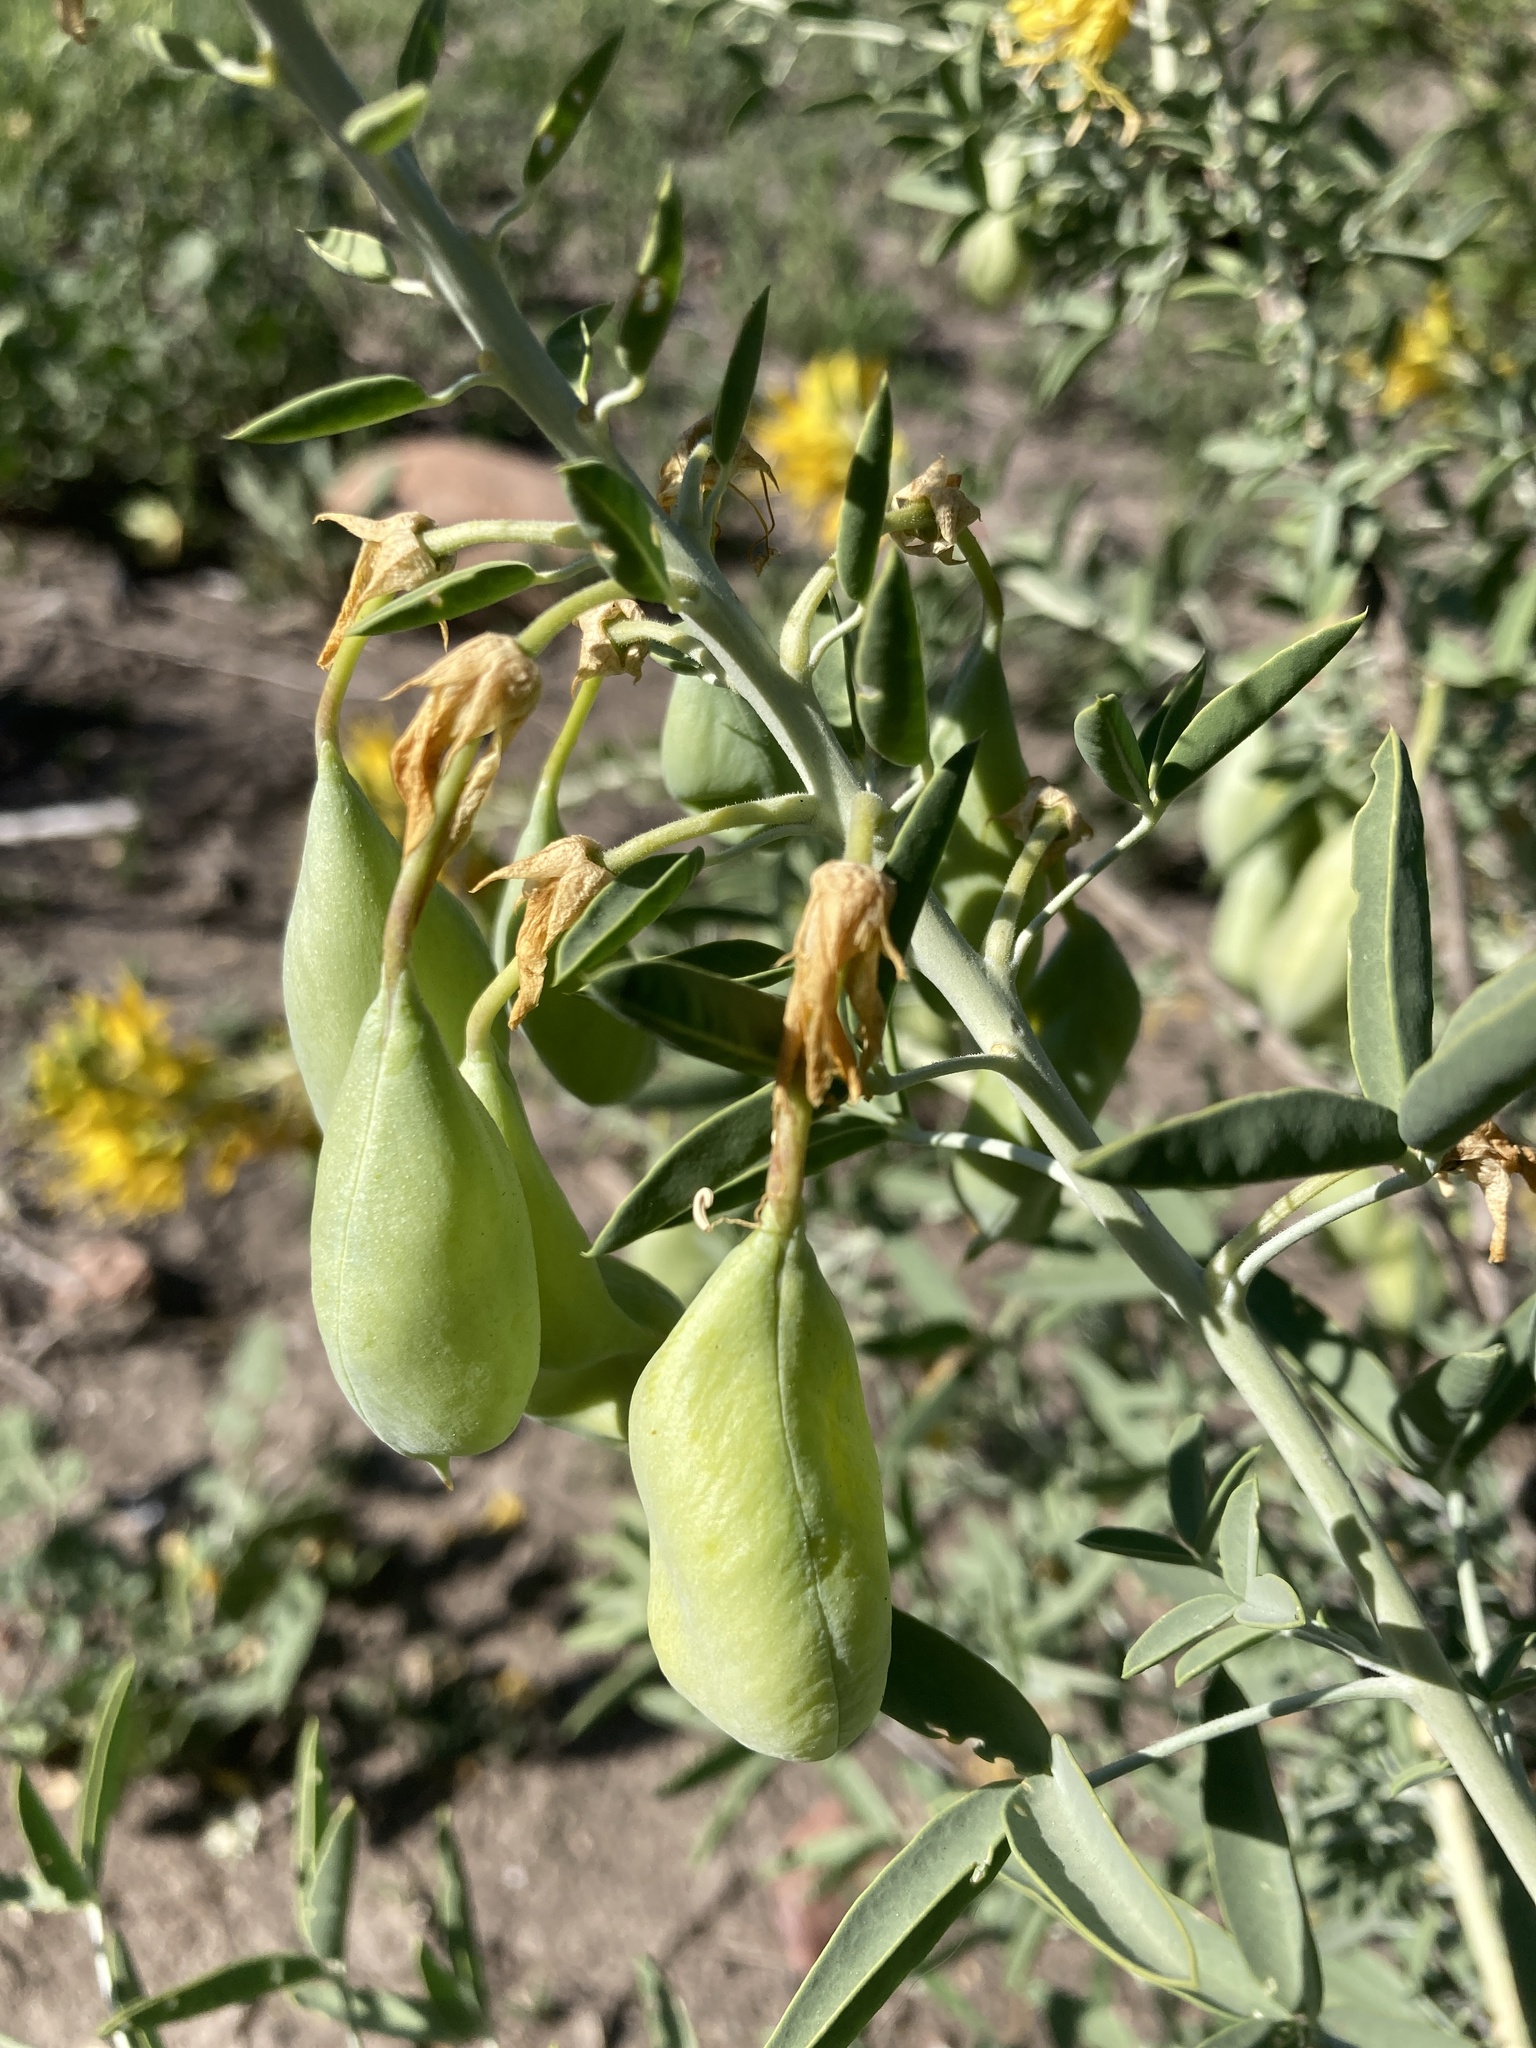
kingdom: Plantae
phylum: Tracheophyta
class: Magnoliopsida
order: Brassicales
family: Cleomaceae
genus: Cleomella
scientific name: Cleomella arborea
